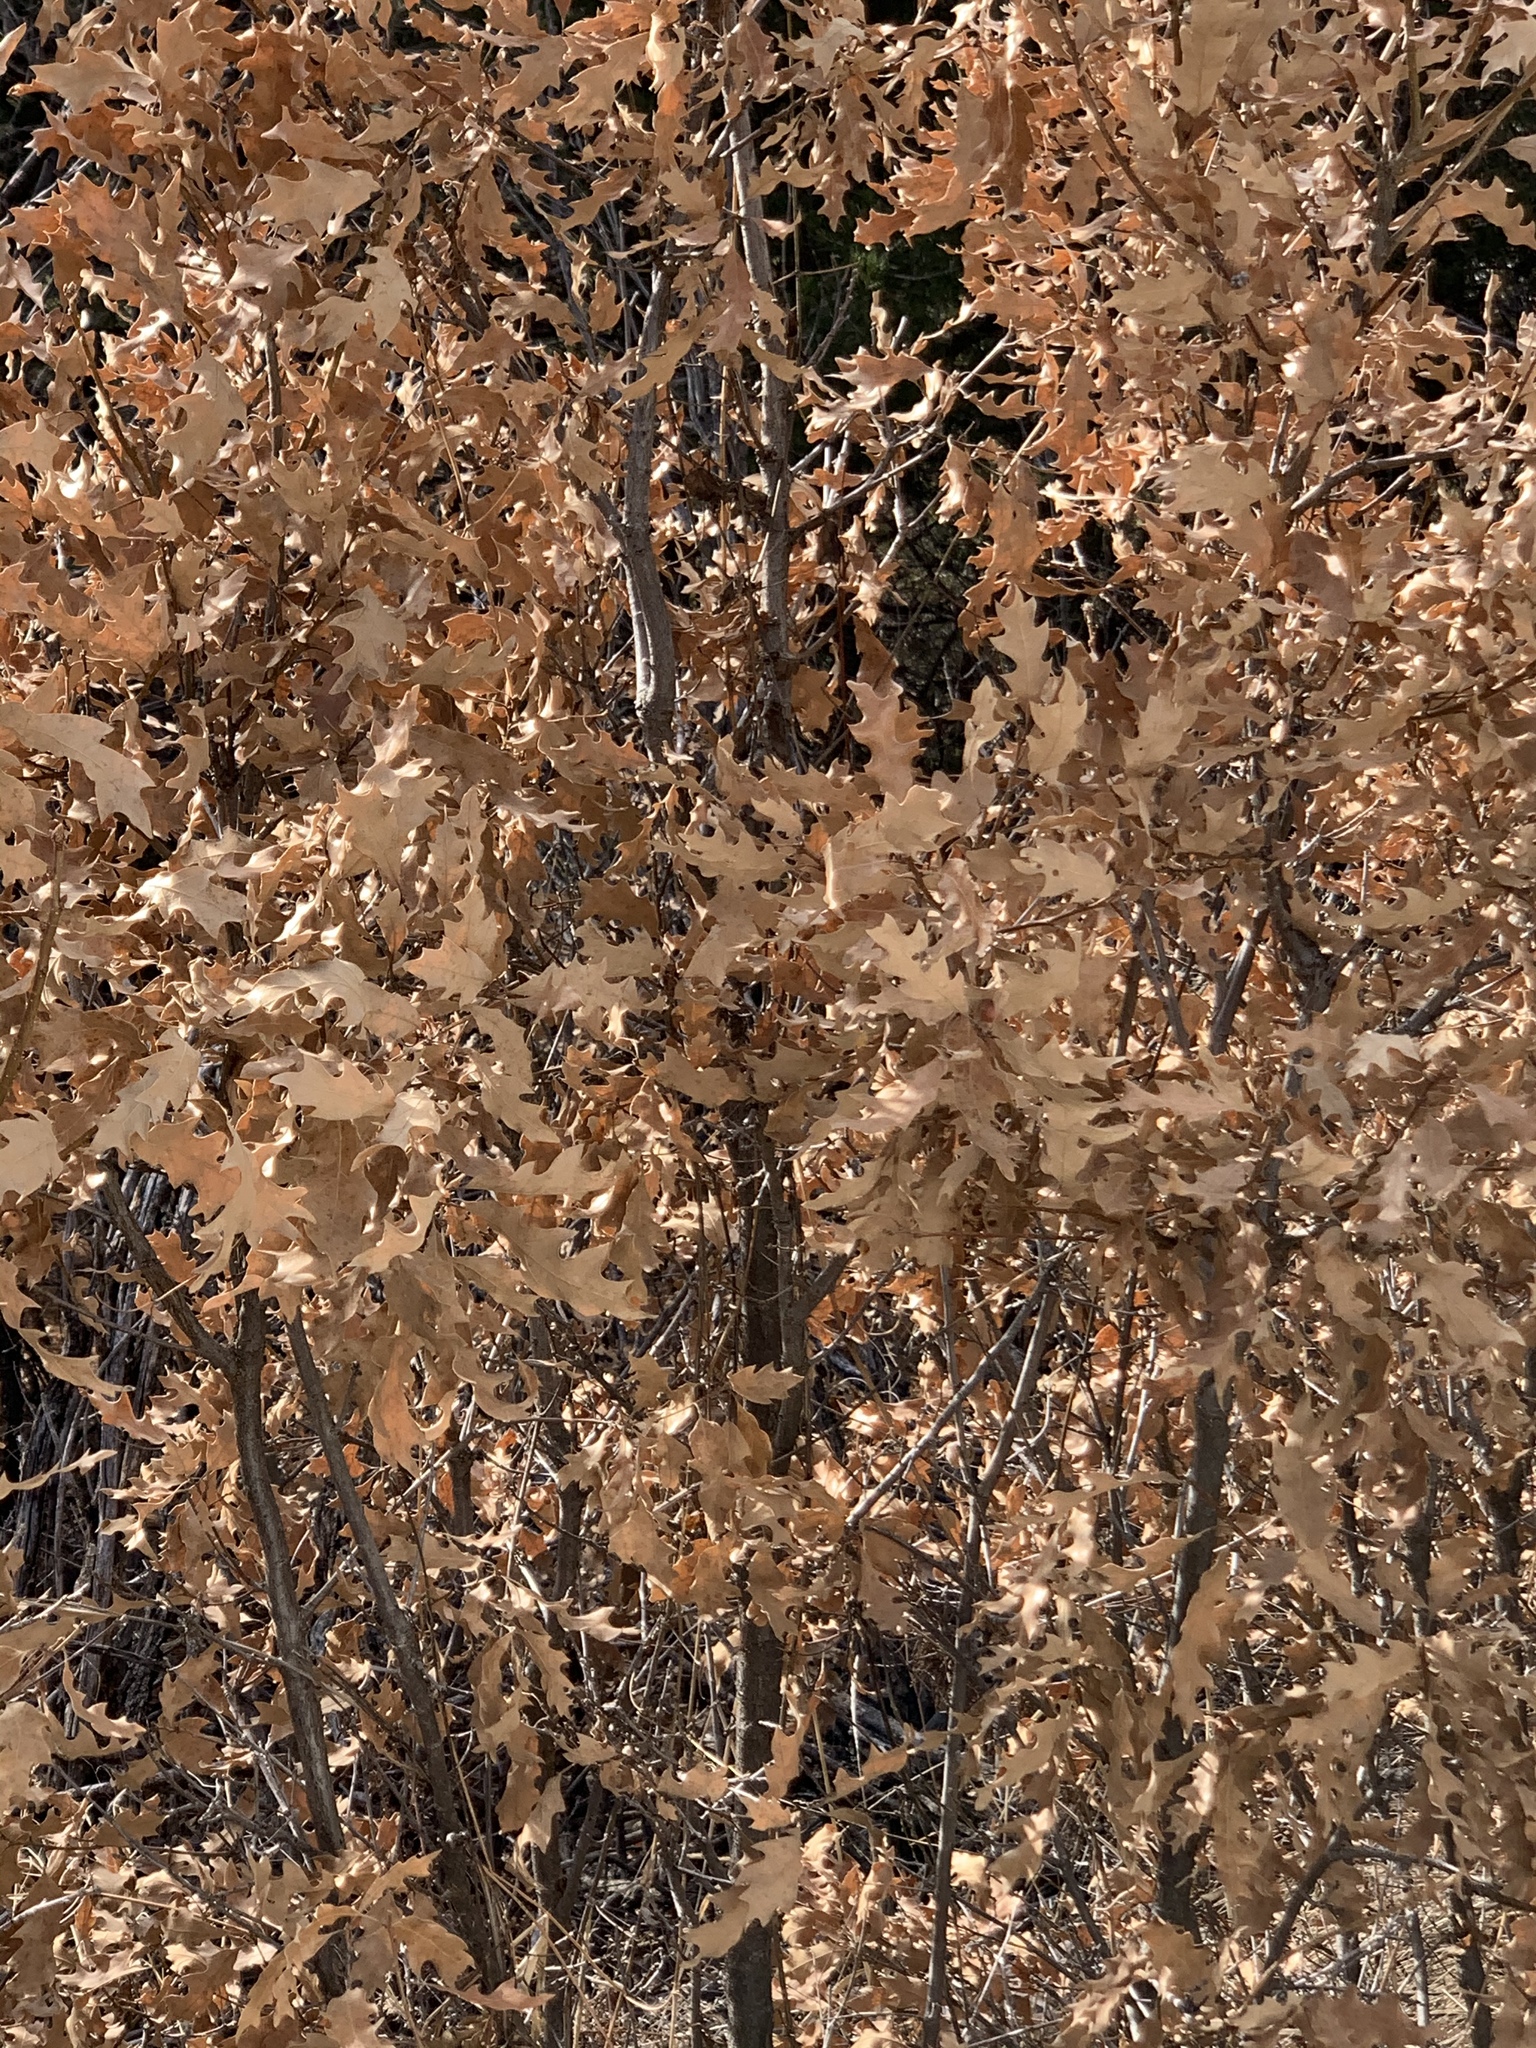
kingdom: Plantae
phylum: Tracheophyta
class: Magnoliopsida
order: Fagales
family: Fagaceae
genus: Quercus
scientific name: Quercus gambelii
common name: Gambel oak
